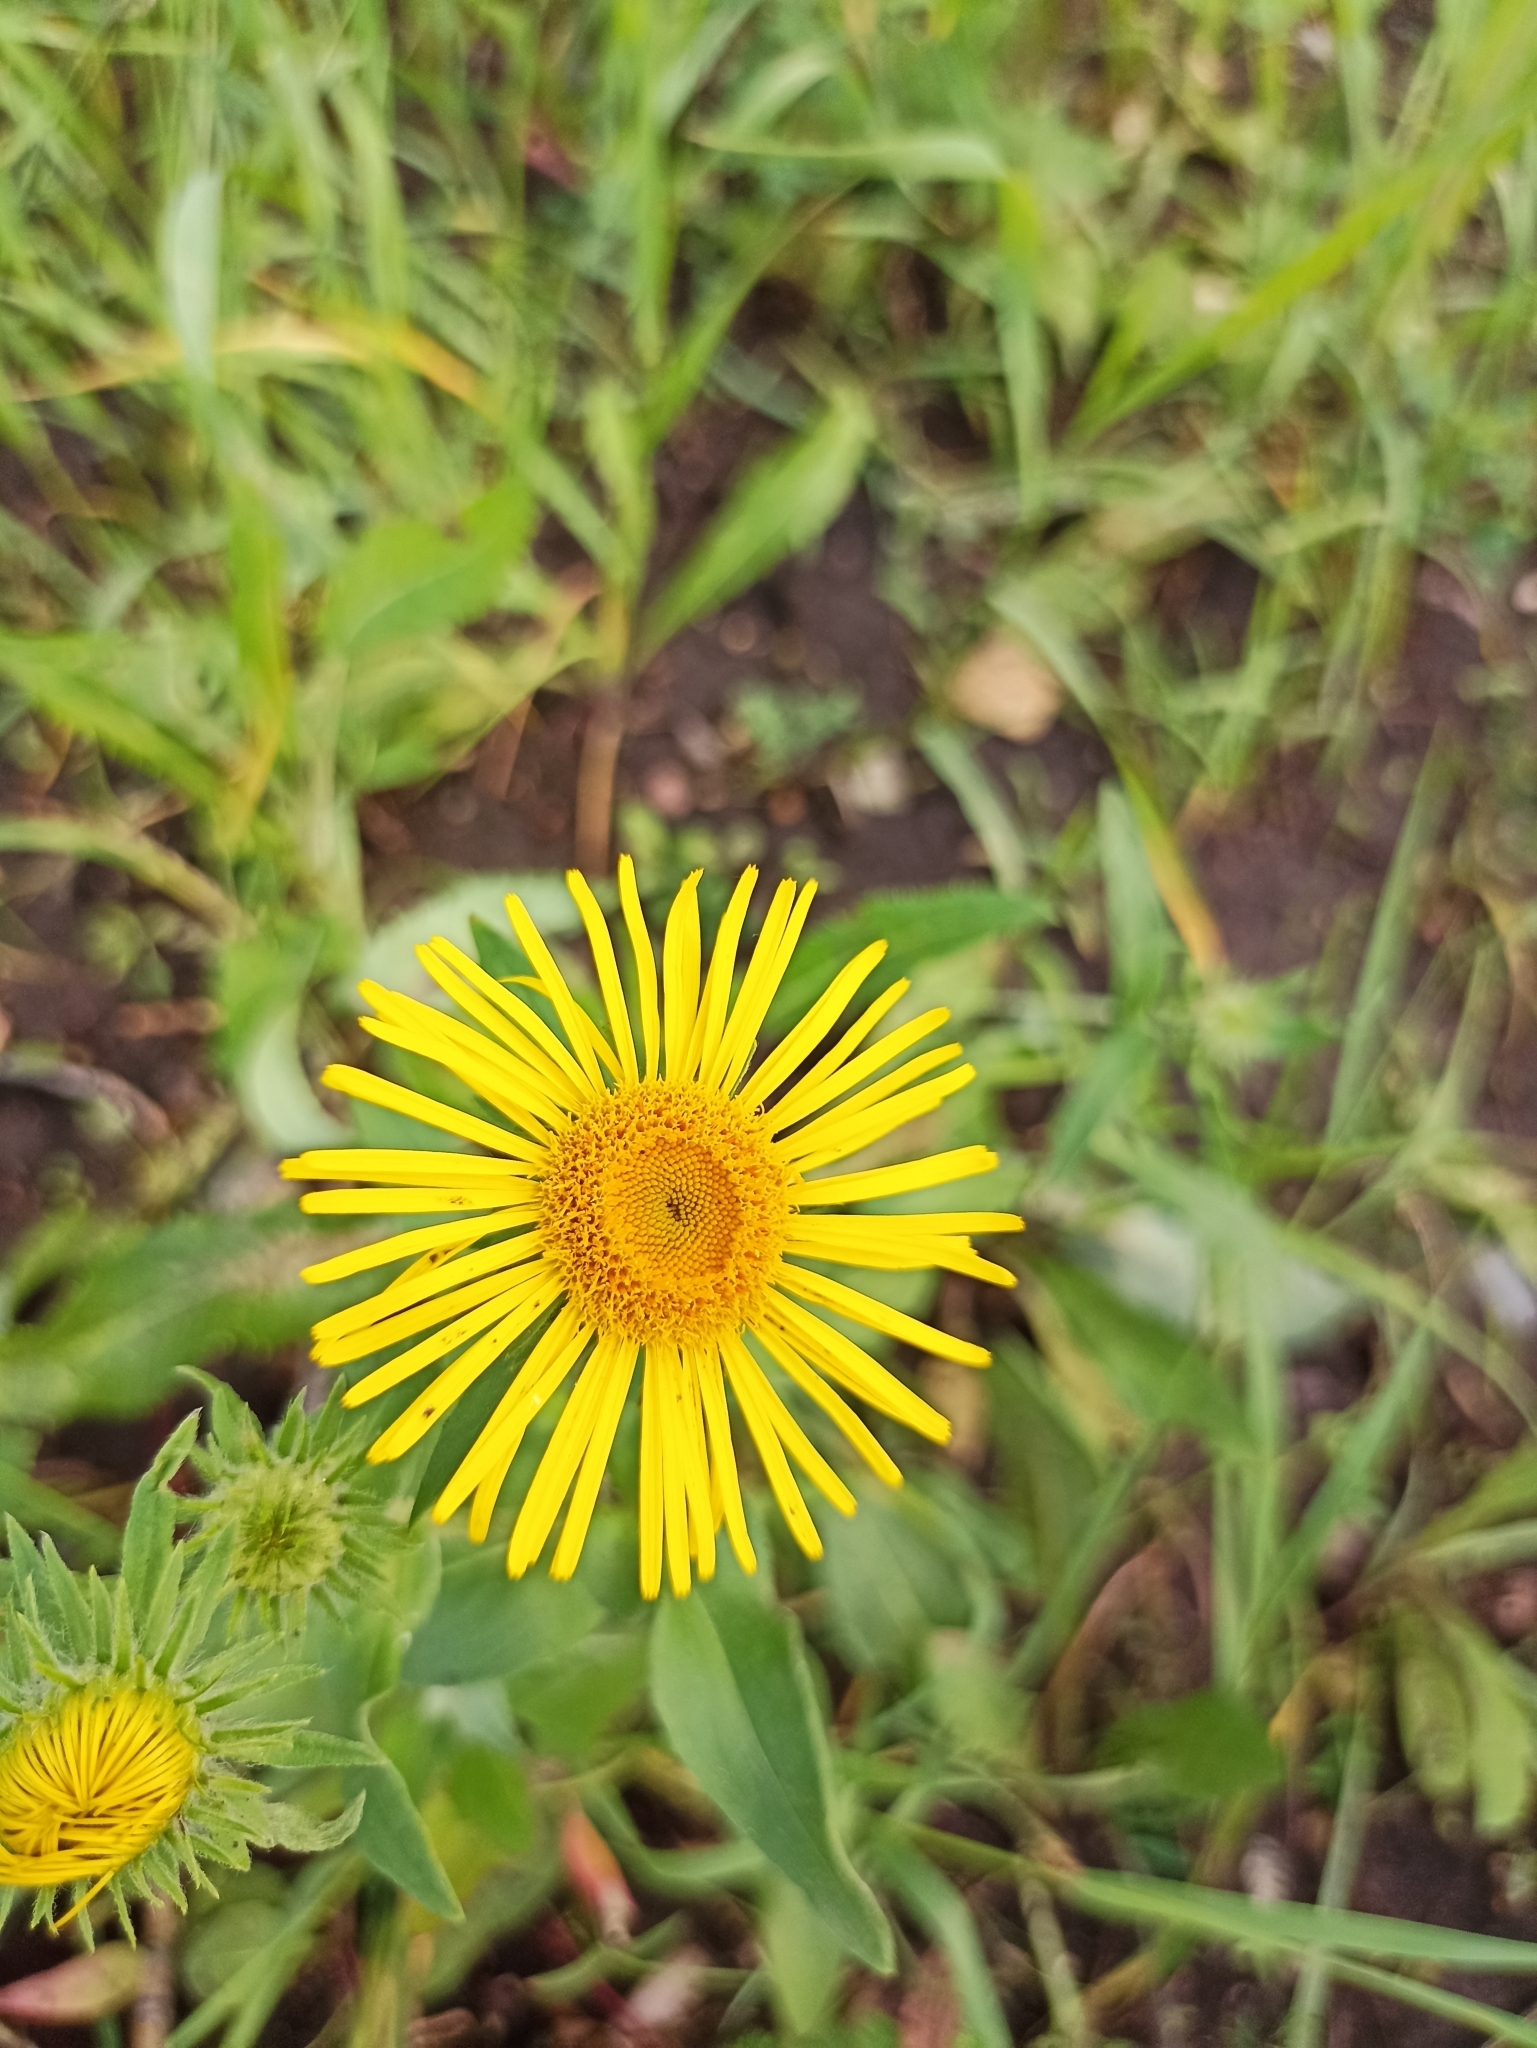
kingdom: Plantae
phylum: Tracheophyta
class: Magnoliopsida
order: Asterales
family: Asteraceae
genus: Pentanema
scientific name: Pentanema britannicum
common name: British elecampane
